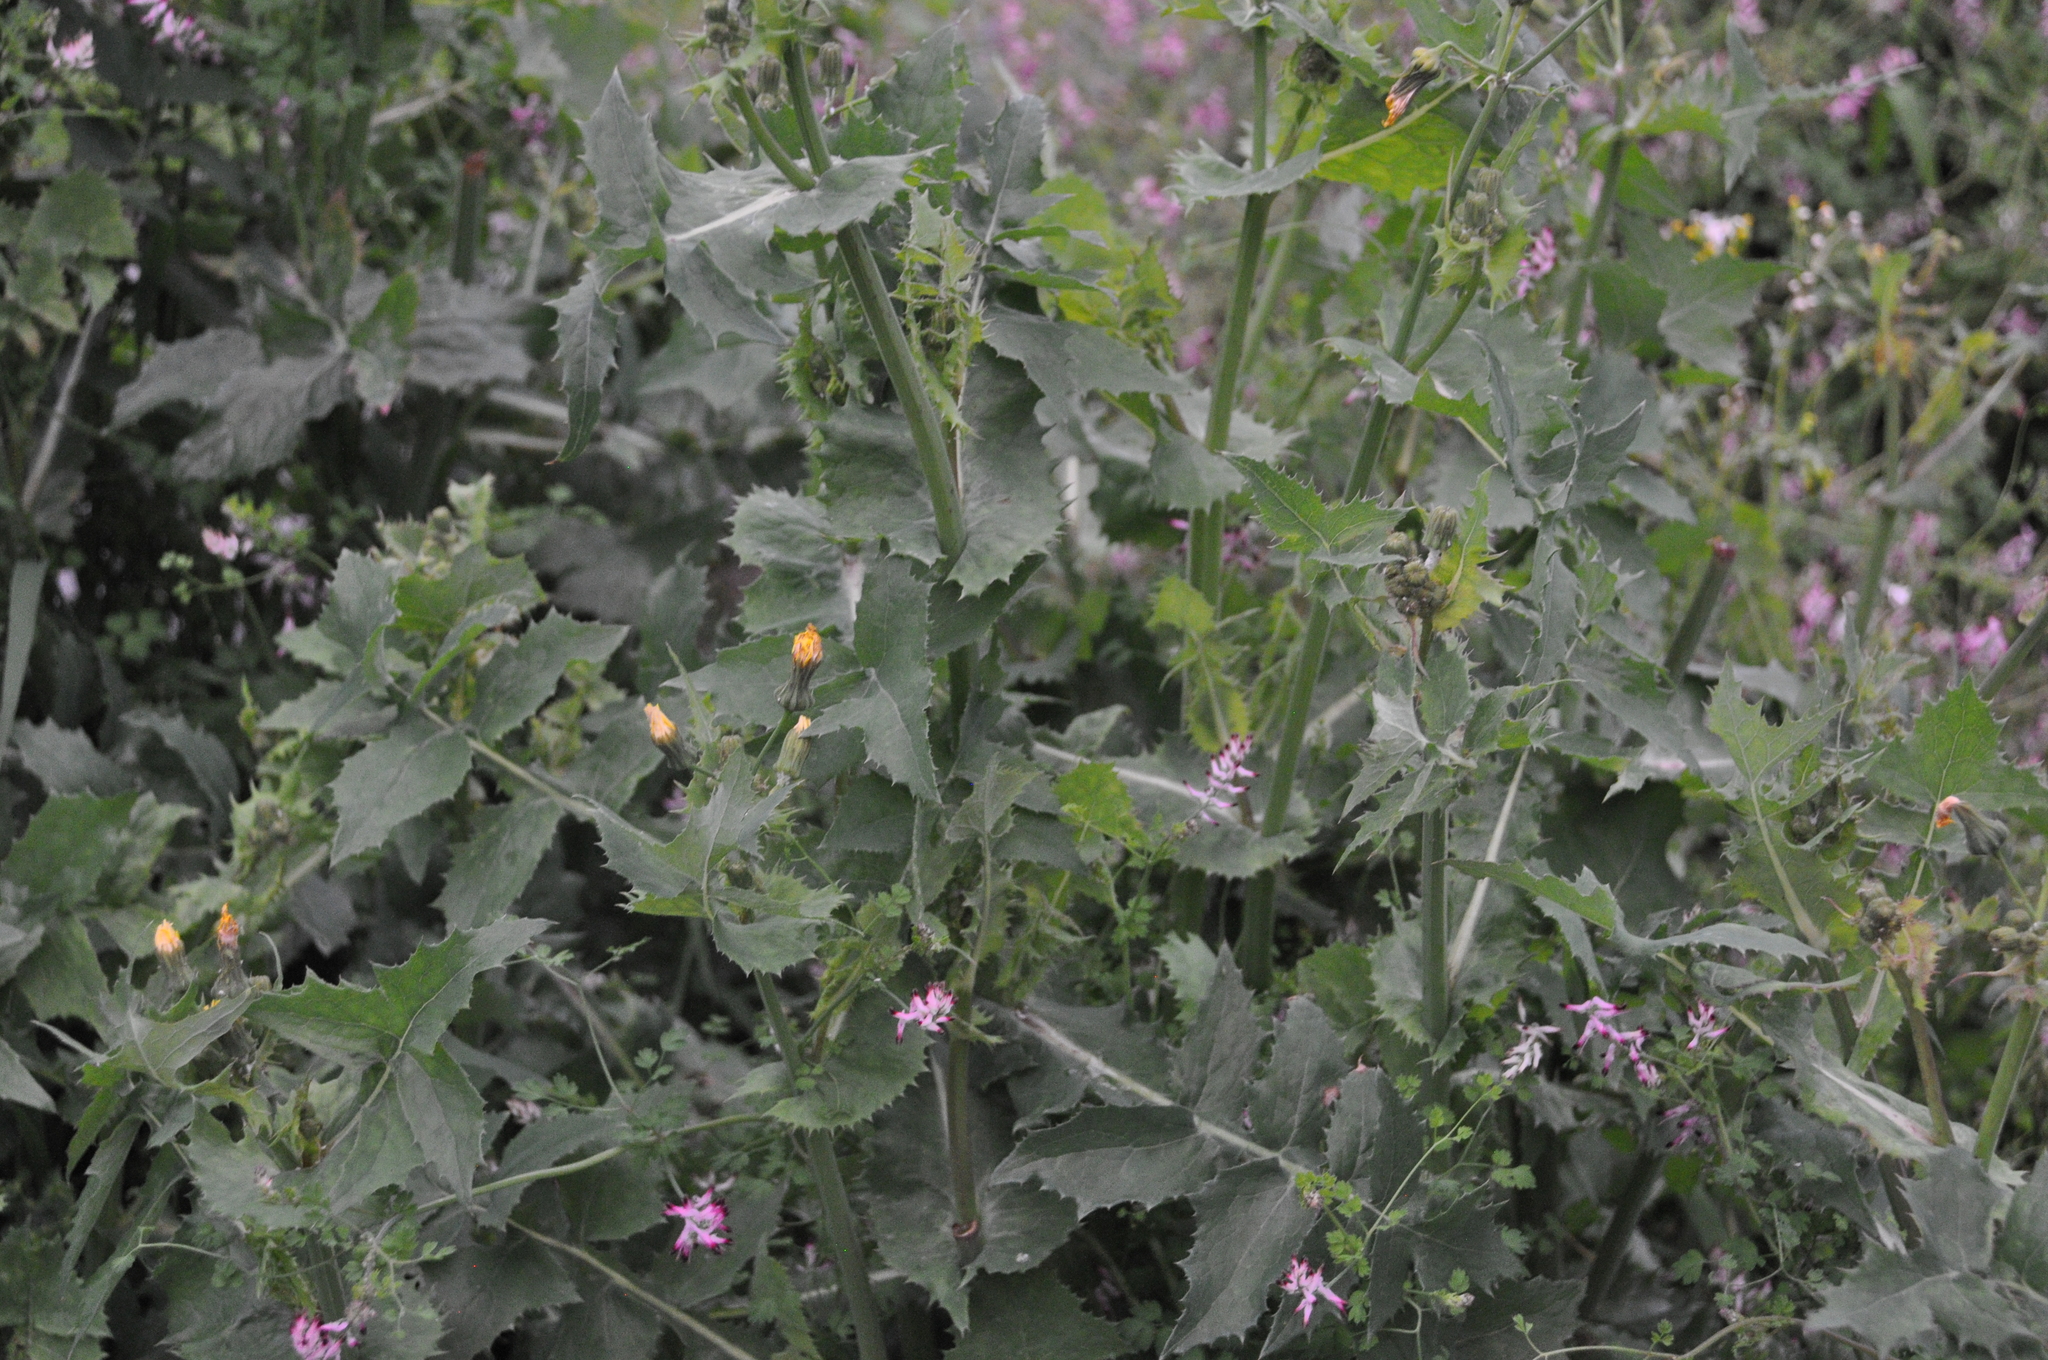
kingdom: Plantae
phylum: Tracheophyta
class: Magnoliopsida
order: Asterales
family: Asteraceae
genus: Sonchus
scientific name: Sonchus oleraceus
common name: Common sowthistle
